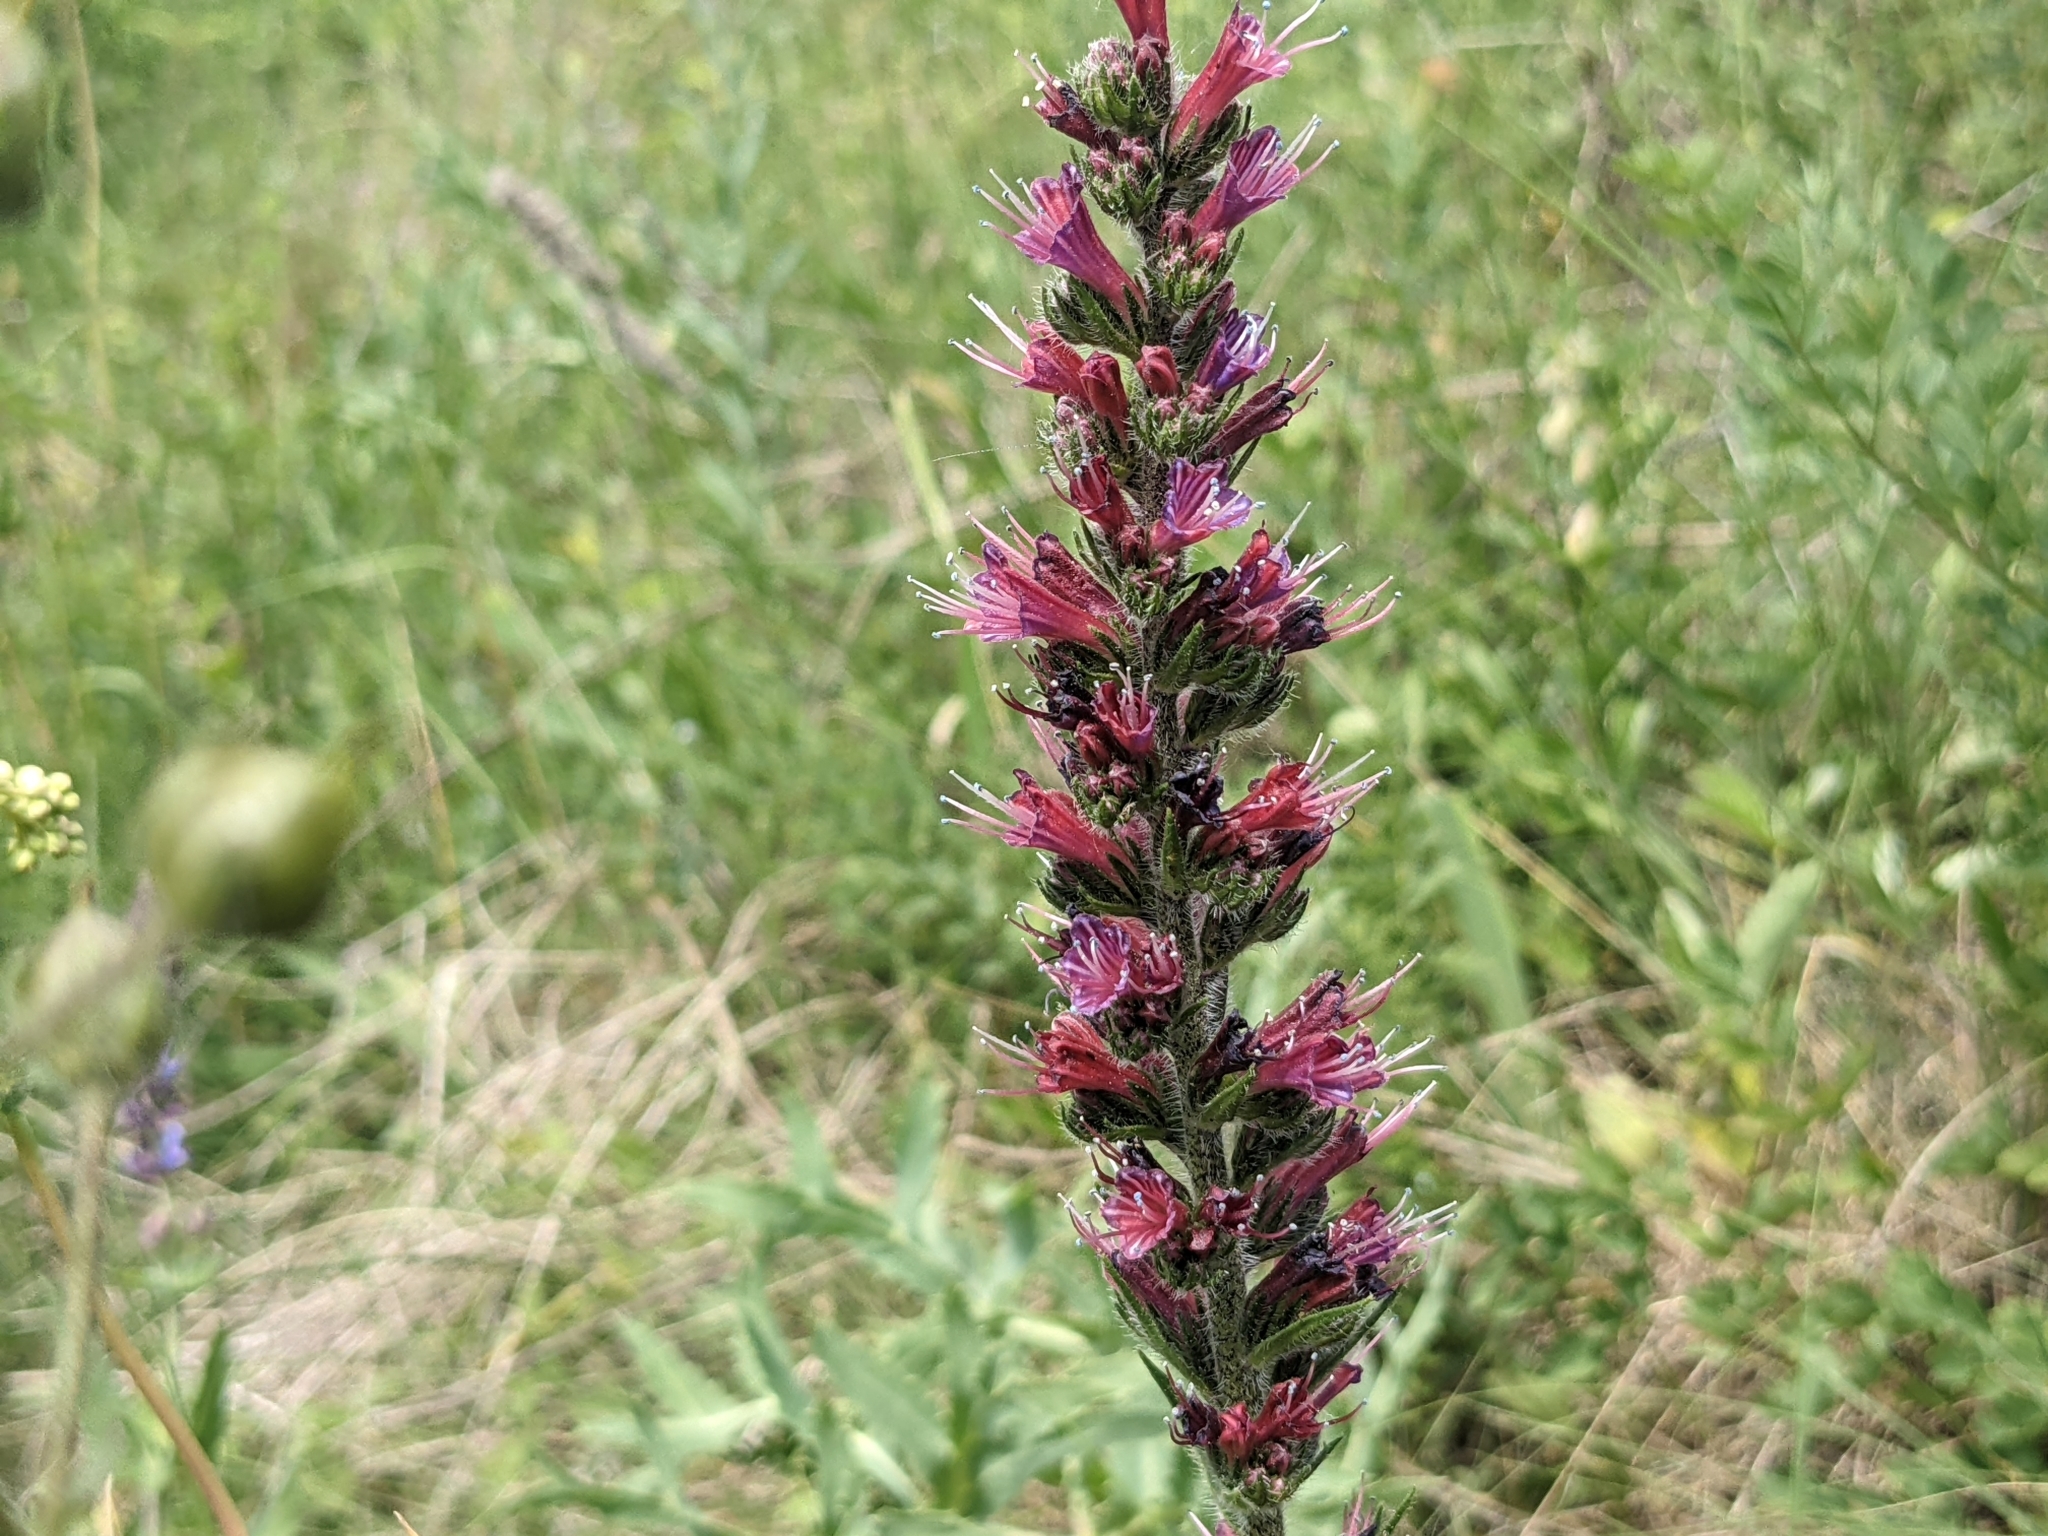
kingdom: Plantae
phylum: Tracheophyta
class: Magnoliopsida
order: Boraginales
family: Boraginaceae
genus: Pontechium
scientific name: Pontechium maculatum
